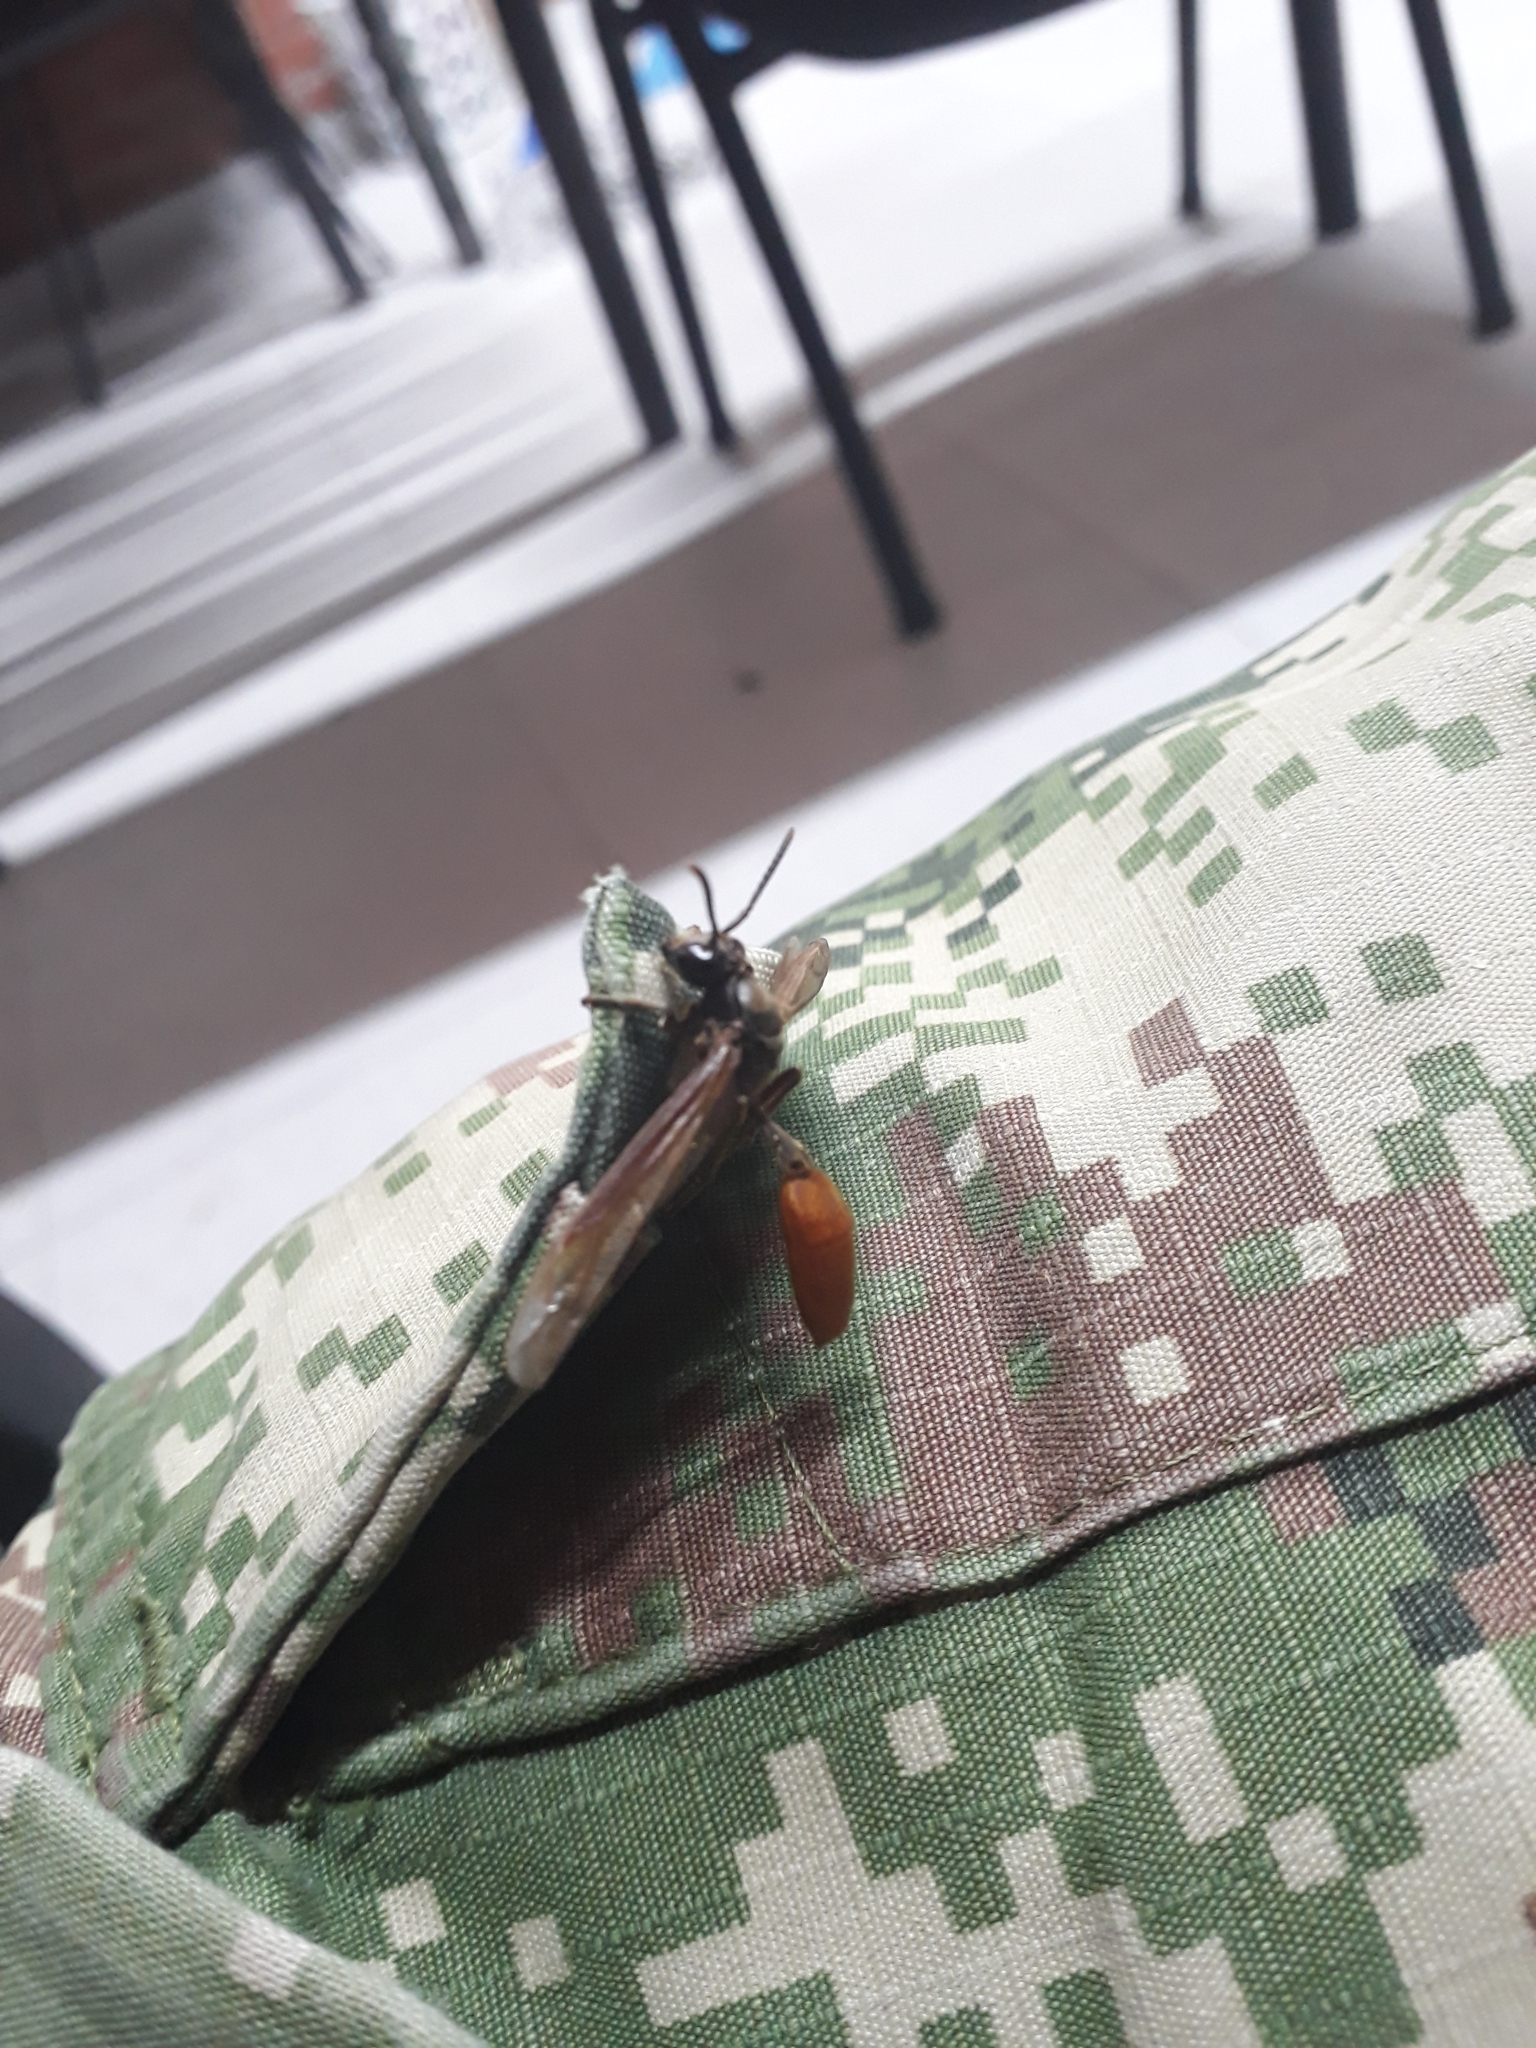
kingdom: Animalia
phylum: Arthropoda
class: Insecta
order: Hymenoptera
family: Vespidae
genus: Apoica
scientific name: Apoica thoracica
